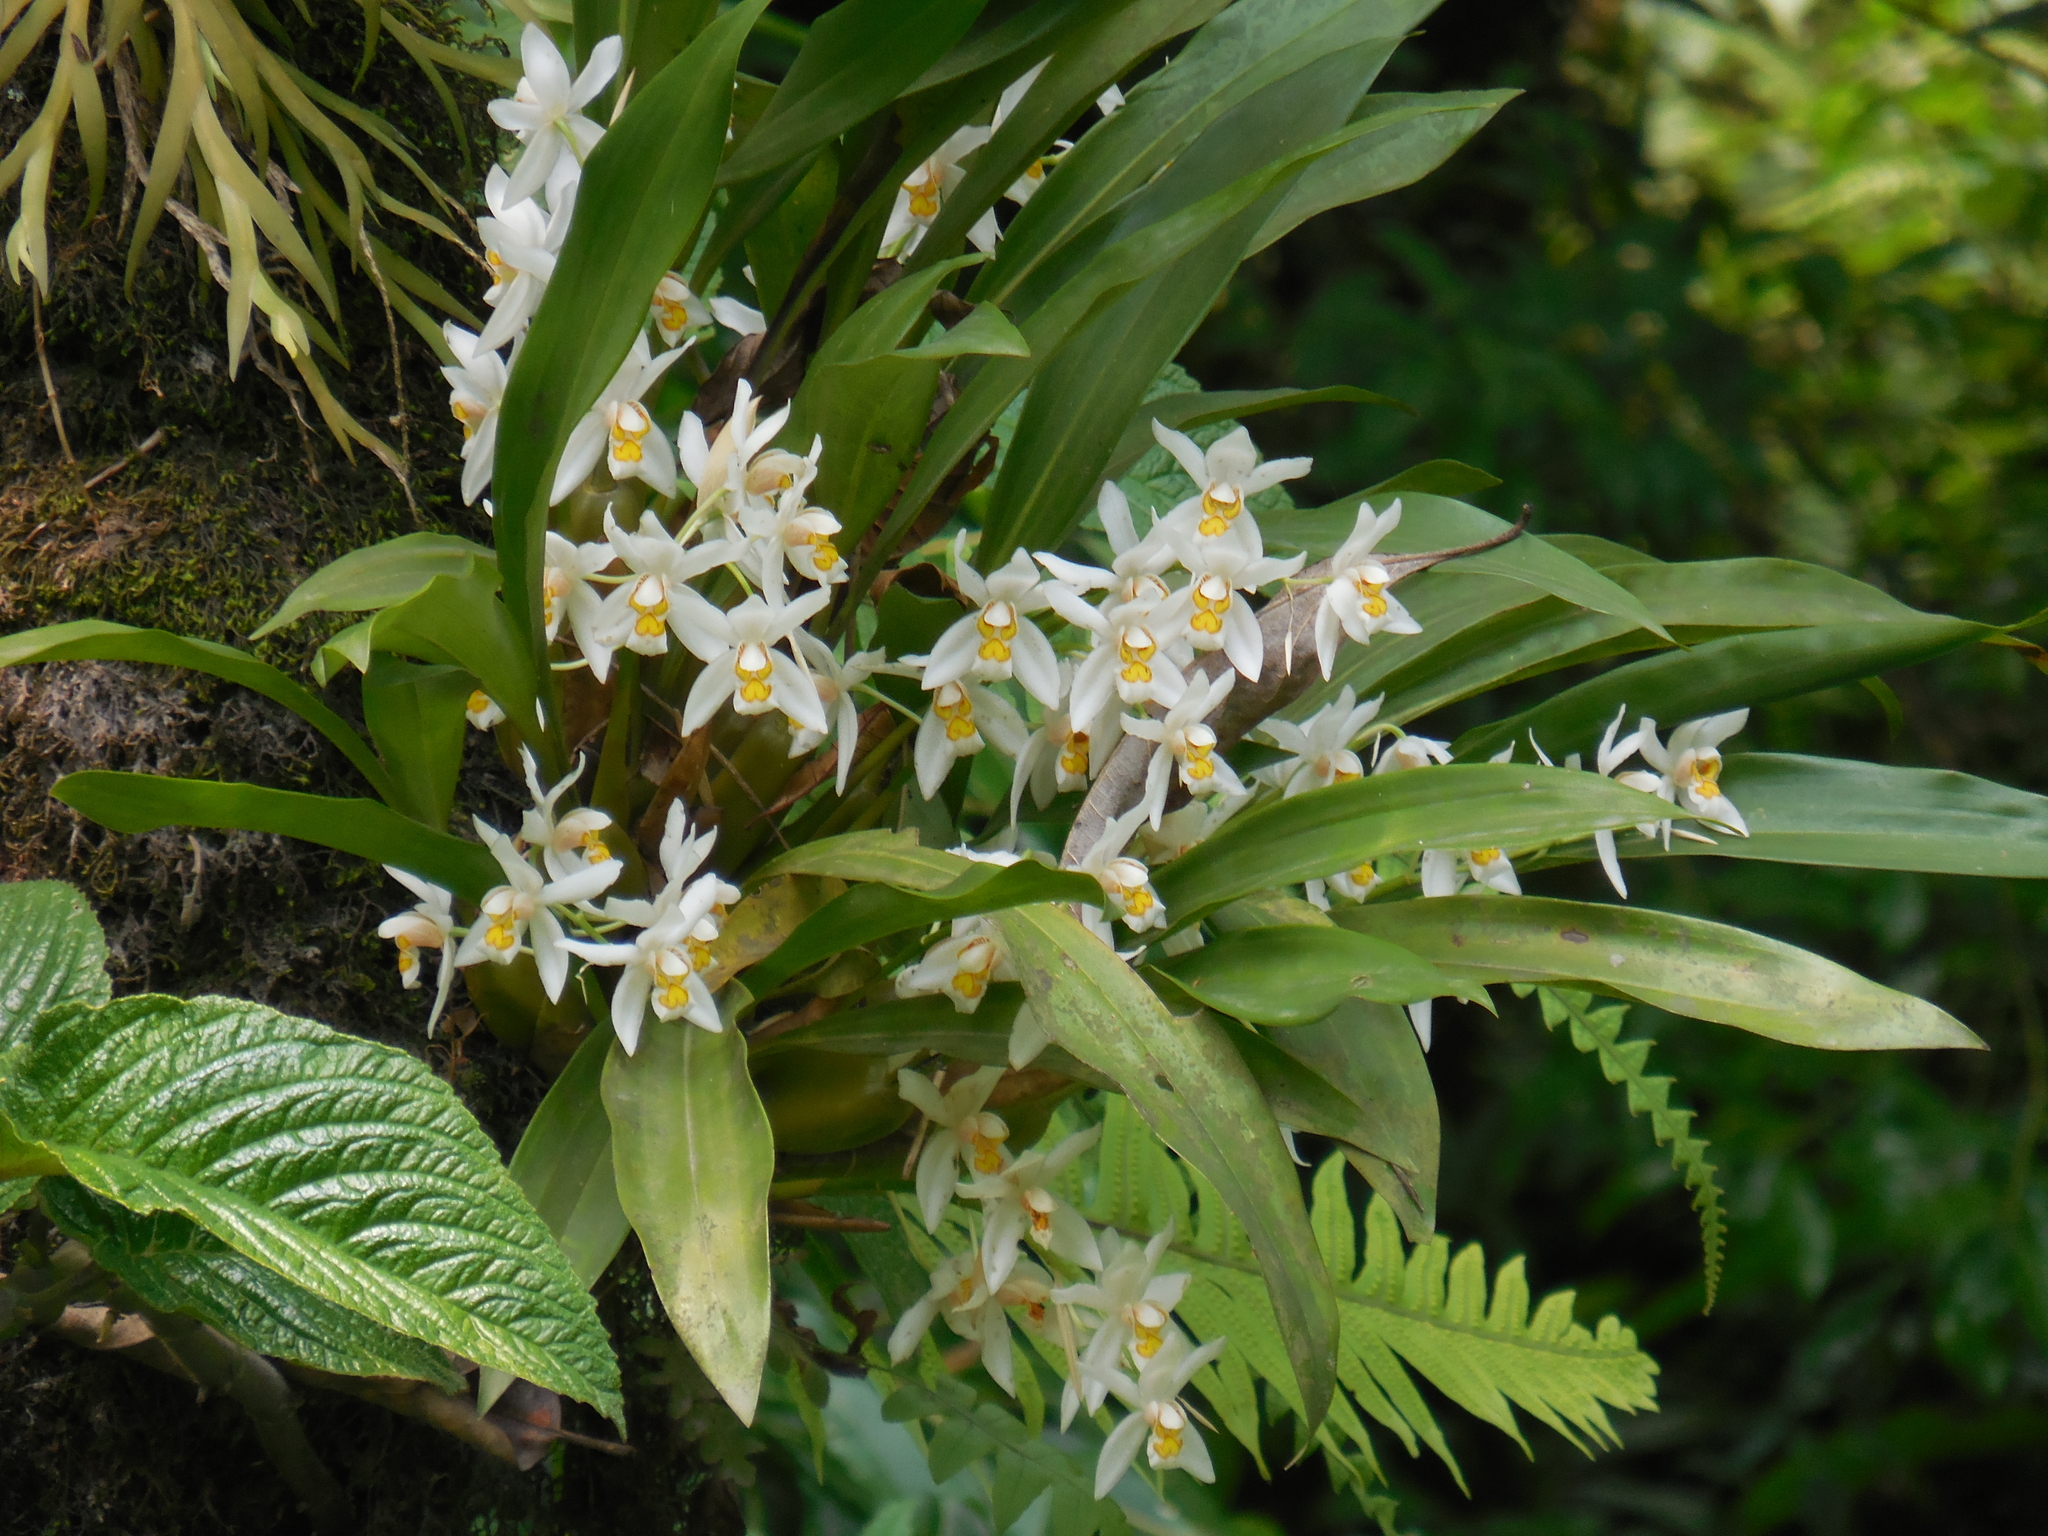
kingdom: Plantae
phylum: Tracheophyta
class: Liliopsida
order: Asparagales
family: Orchidaceae
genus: Coelogyne
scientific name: Coelogyne corymbosa
